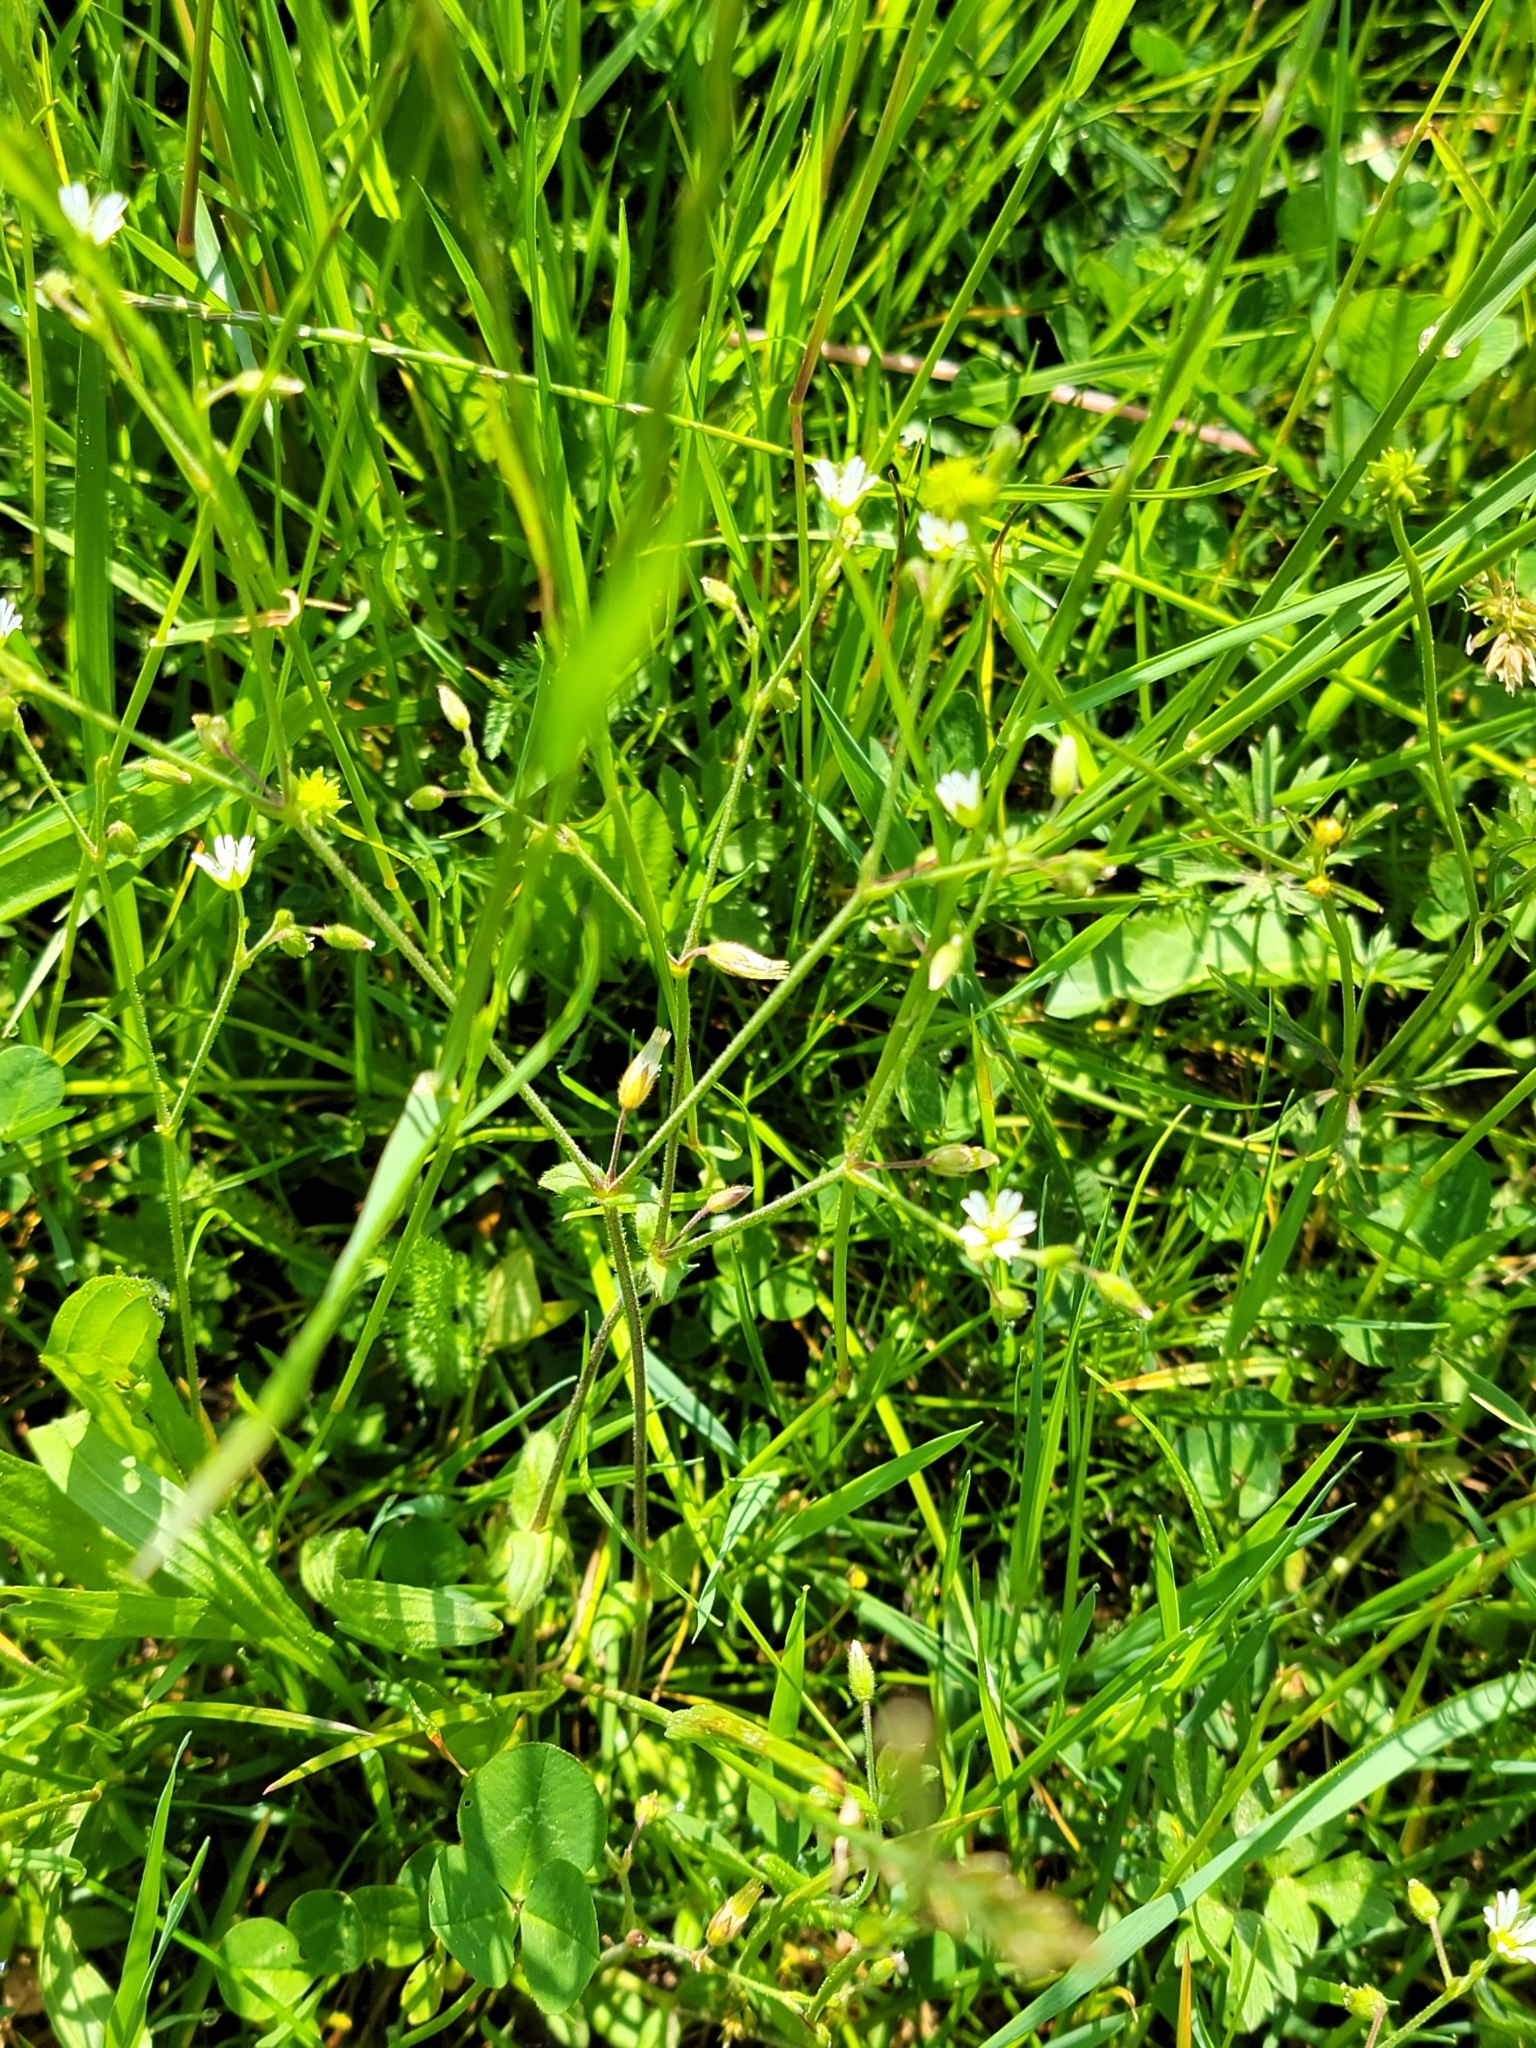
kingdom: Plantae
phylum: Tracheophyta
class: Magnoliopsida
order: Caryophyllales
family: Caryophyllaceae
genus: Cerastium
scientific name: Cerastium holosteoides
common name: Big chickweed
